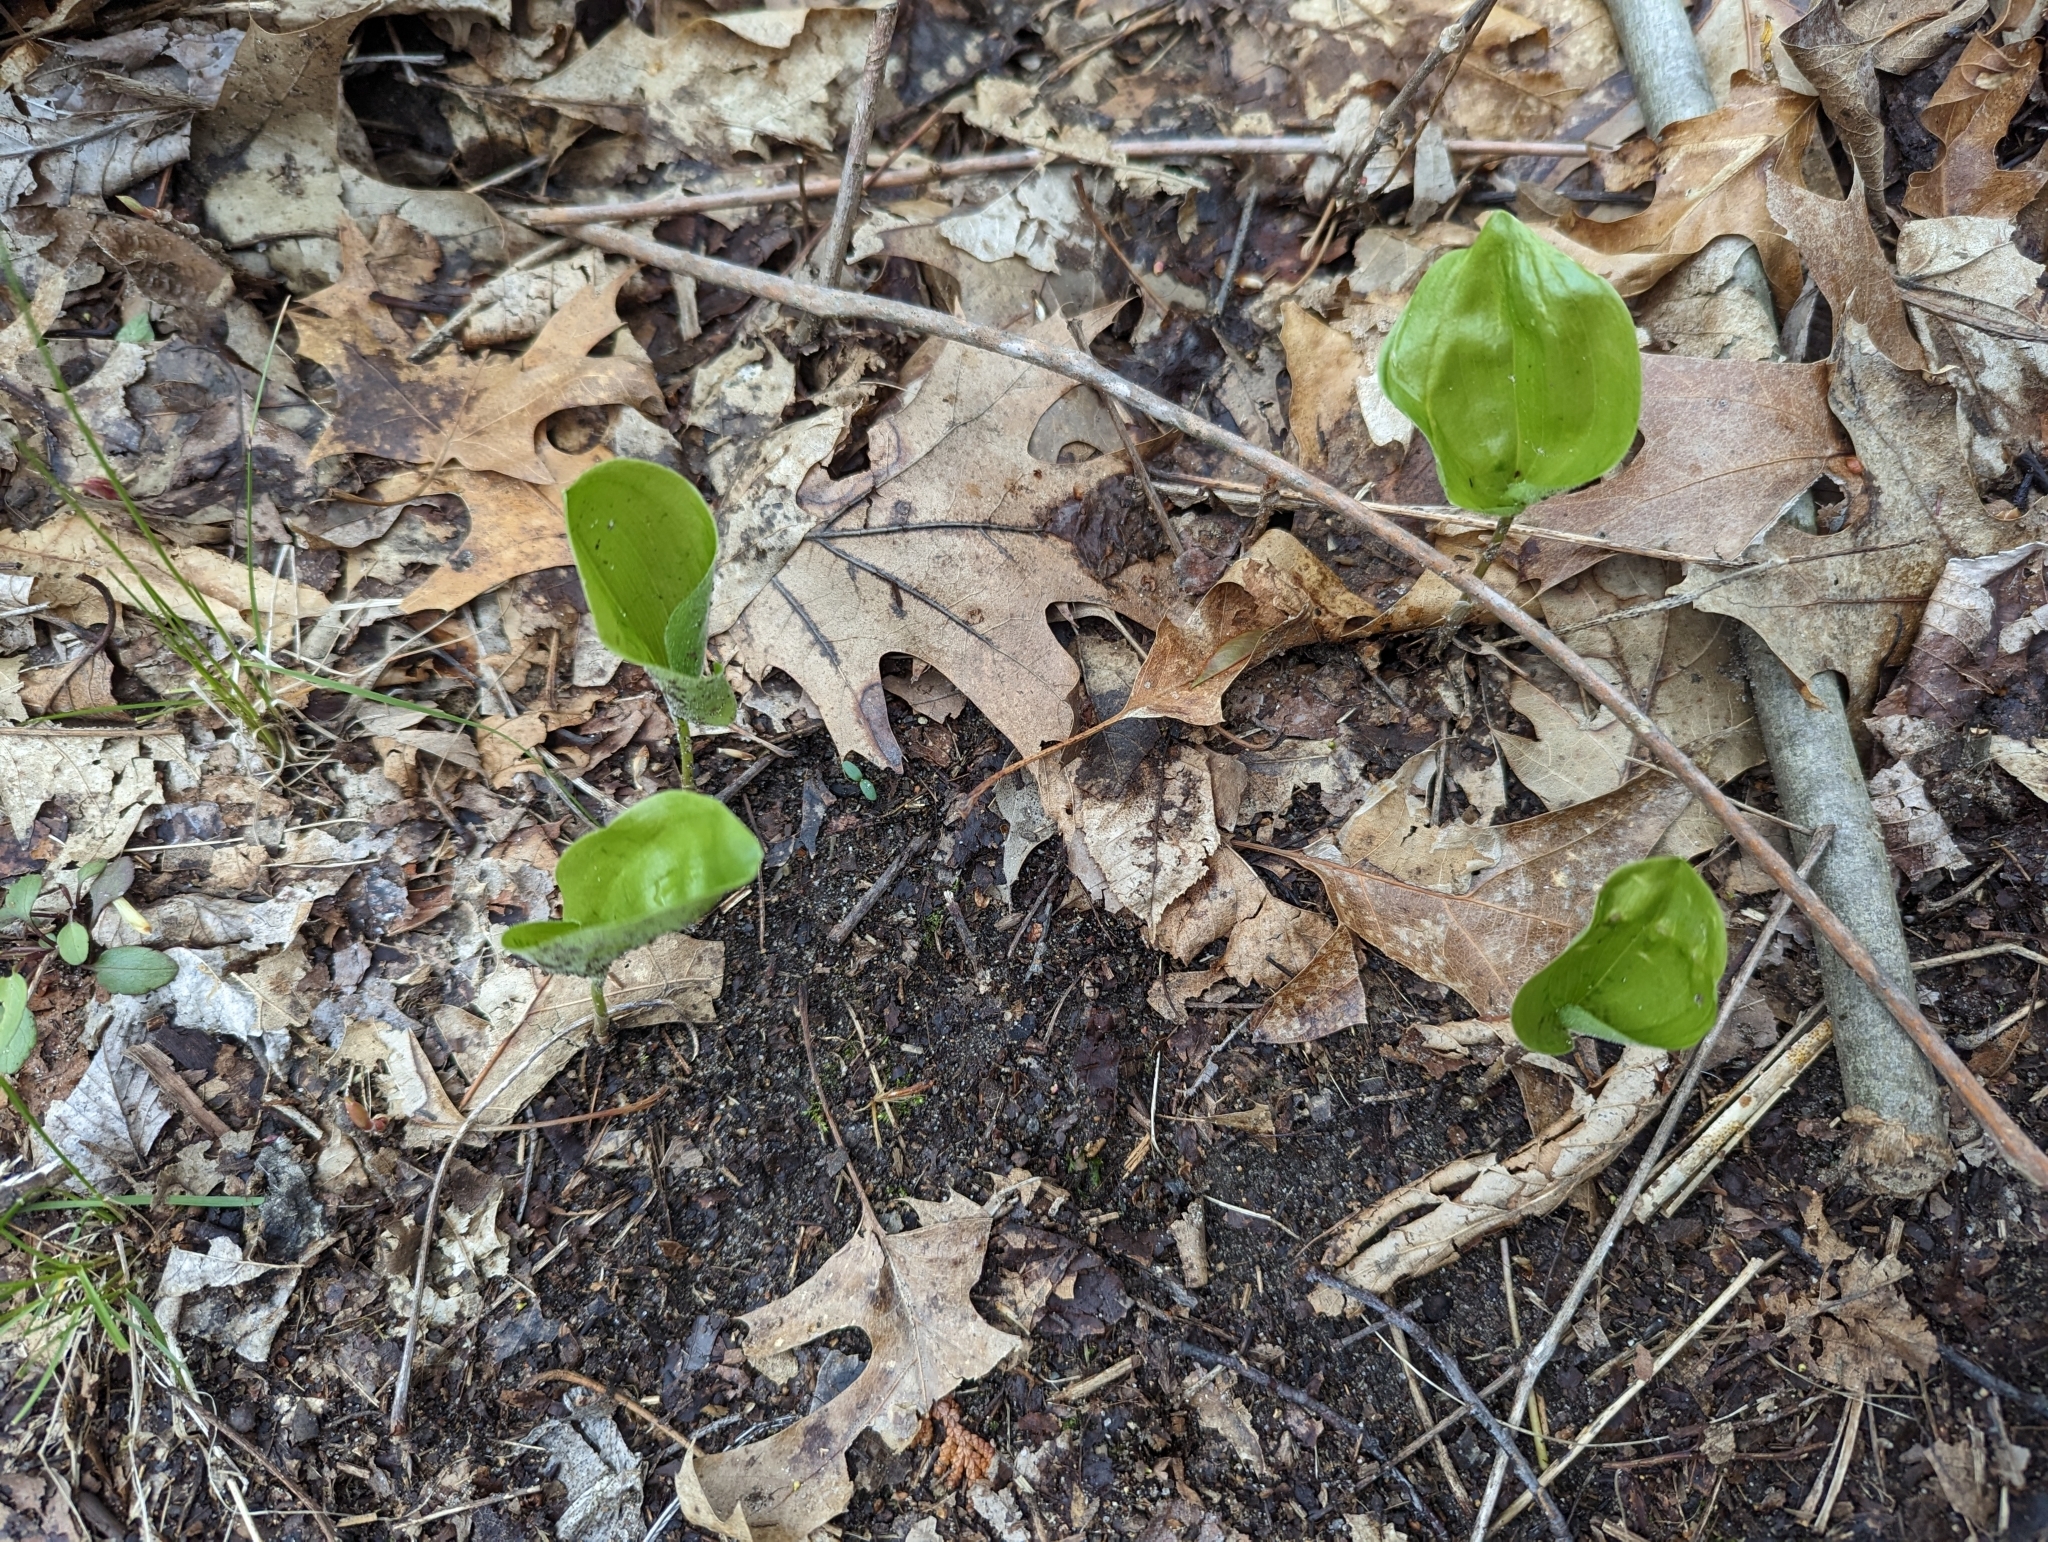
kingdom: Plantae
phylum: Tracheophyta
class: Liliopsida
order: Asparagales
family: Asparagaceae
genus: Maianthemum
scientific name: Maianthemum canadense
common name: False lily-of-the-valley
